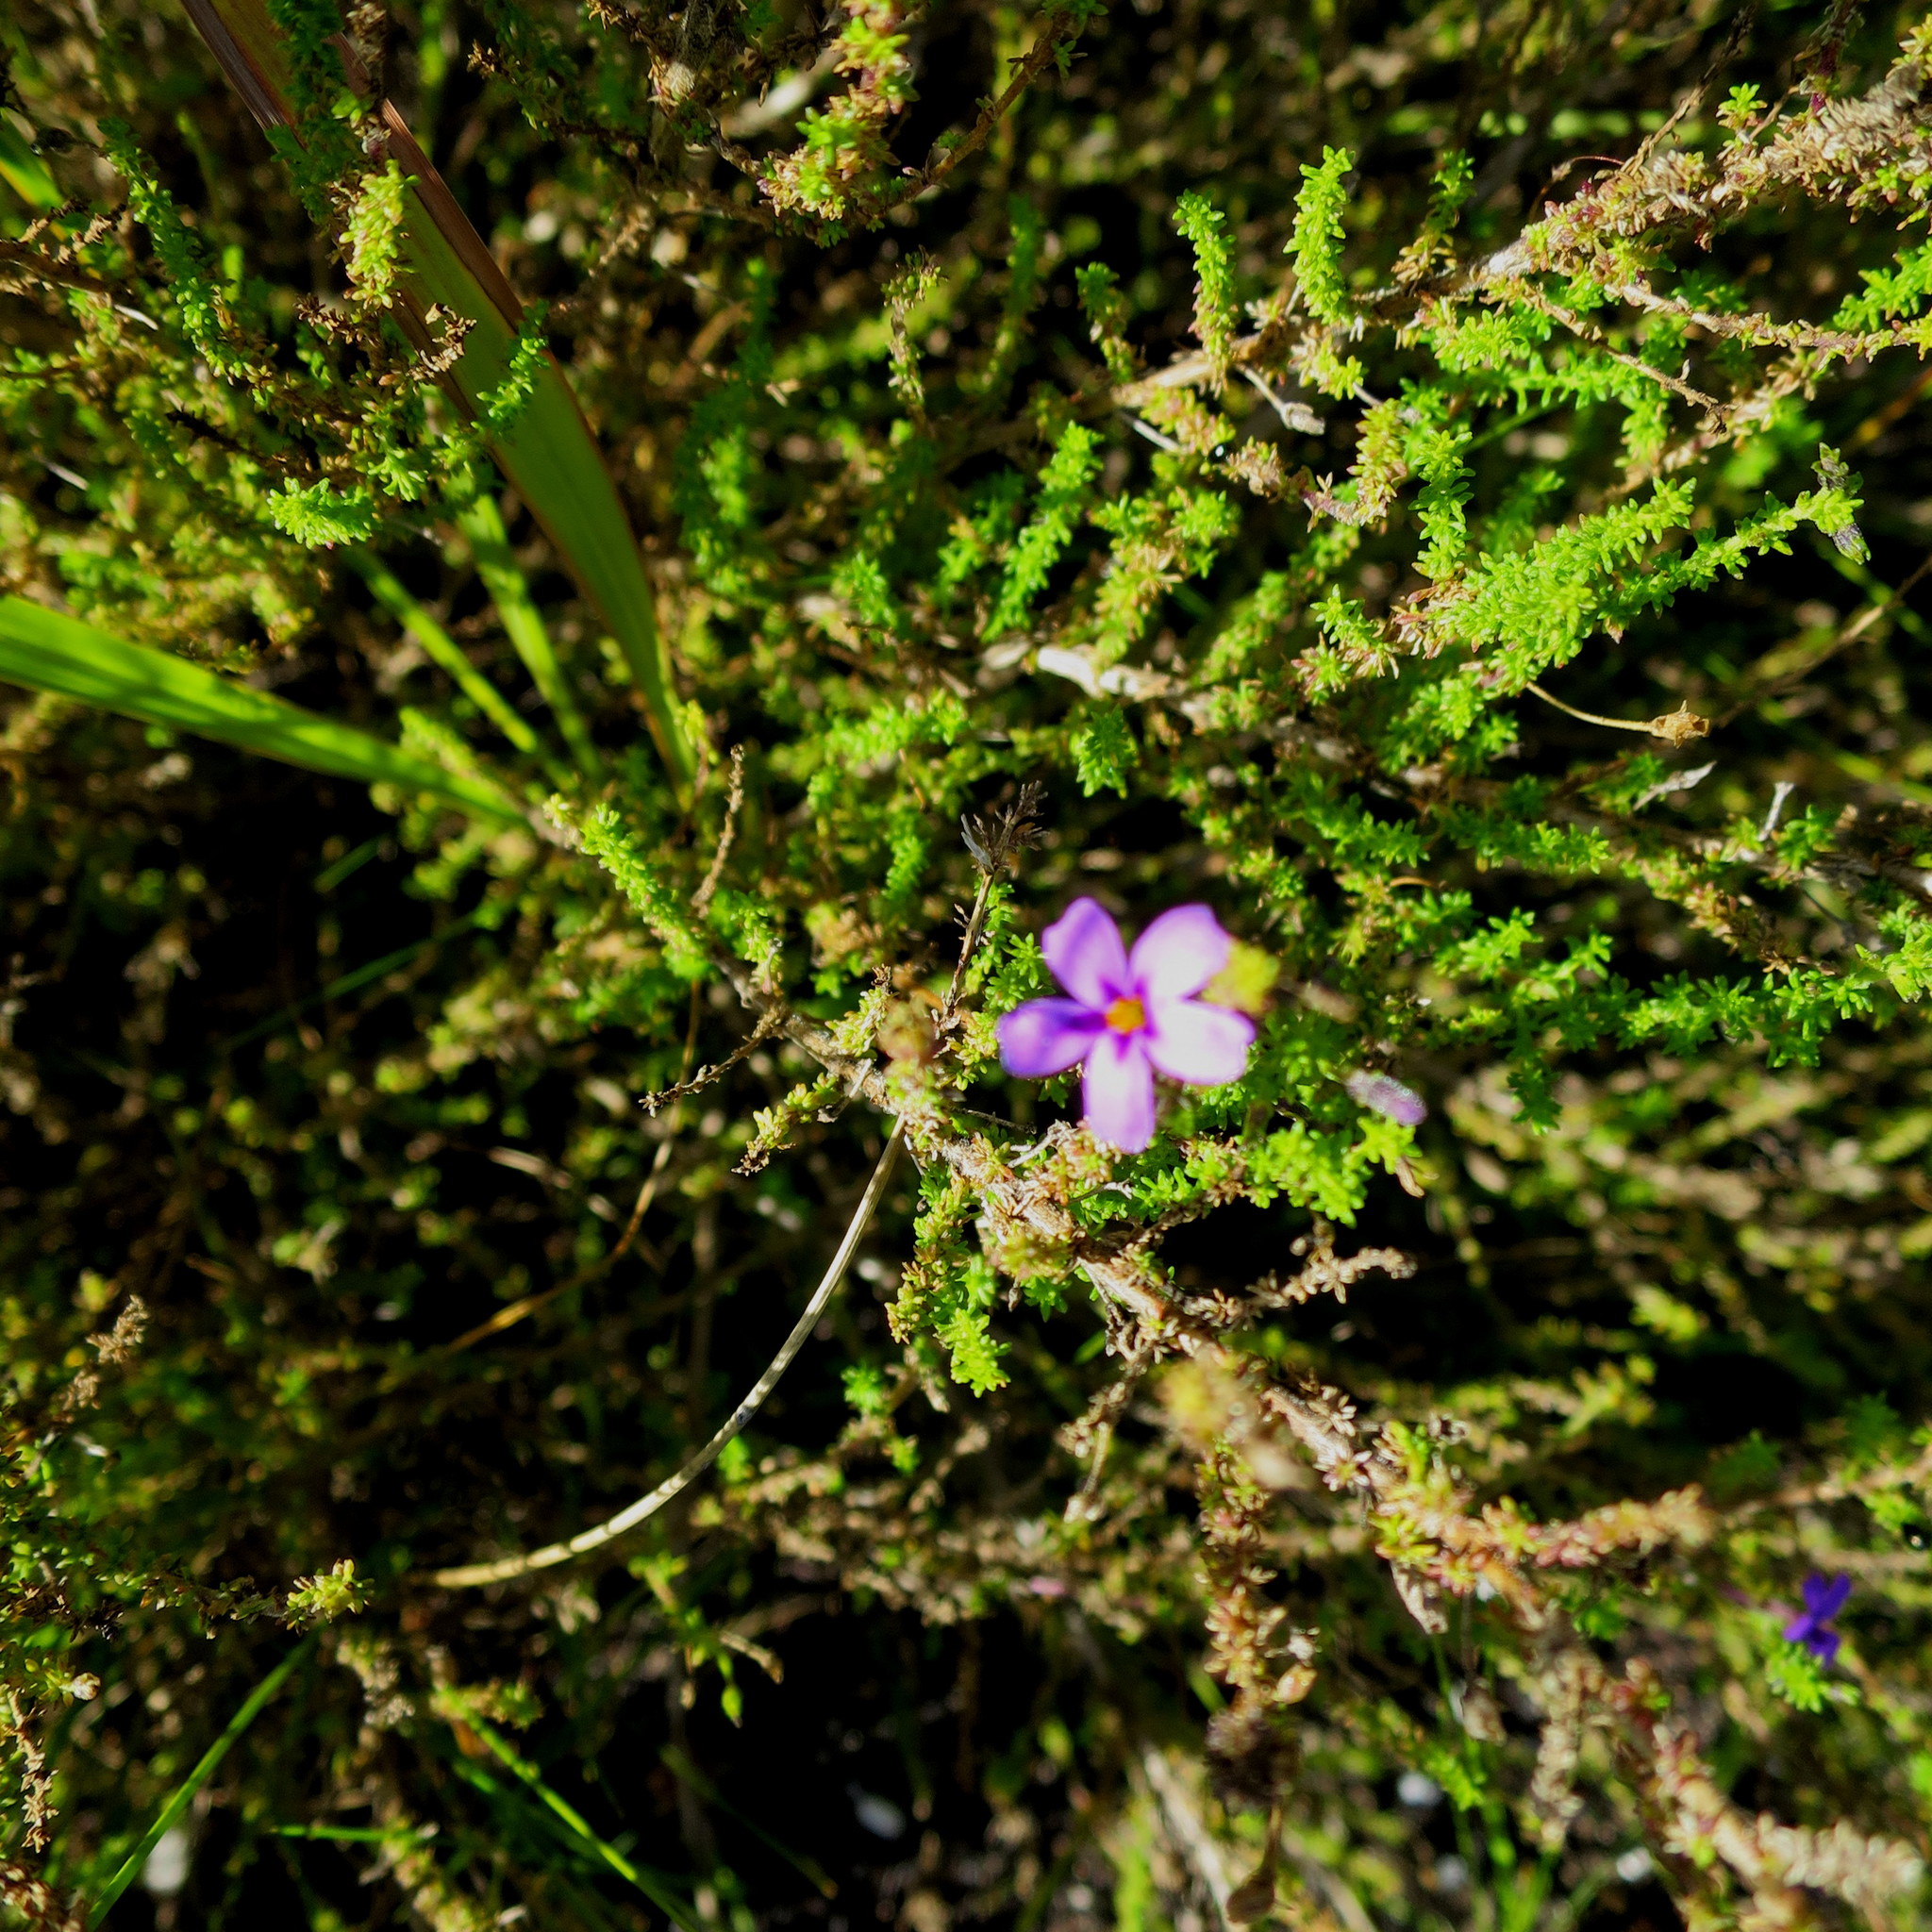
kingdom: Plantae
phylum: Tracheophyta
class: Magnoliopsida
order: Lamiales
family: Scrophulariaceae
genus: Jamesbrittenia
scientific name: Jamesbrittenia microphylla
